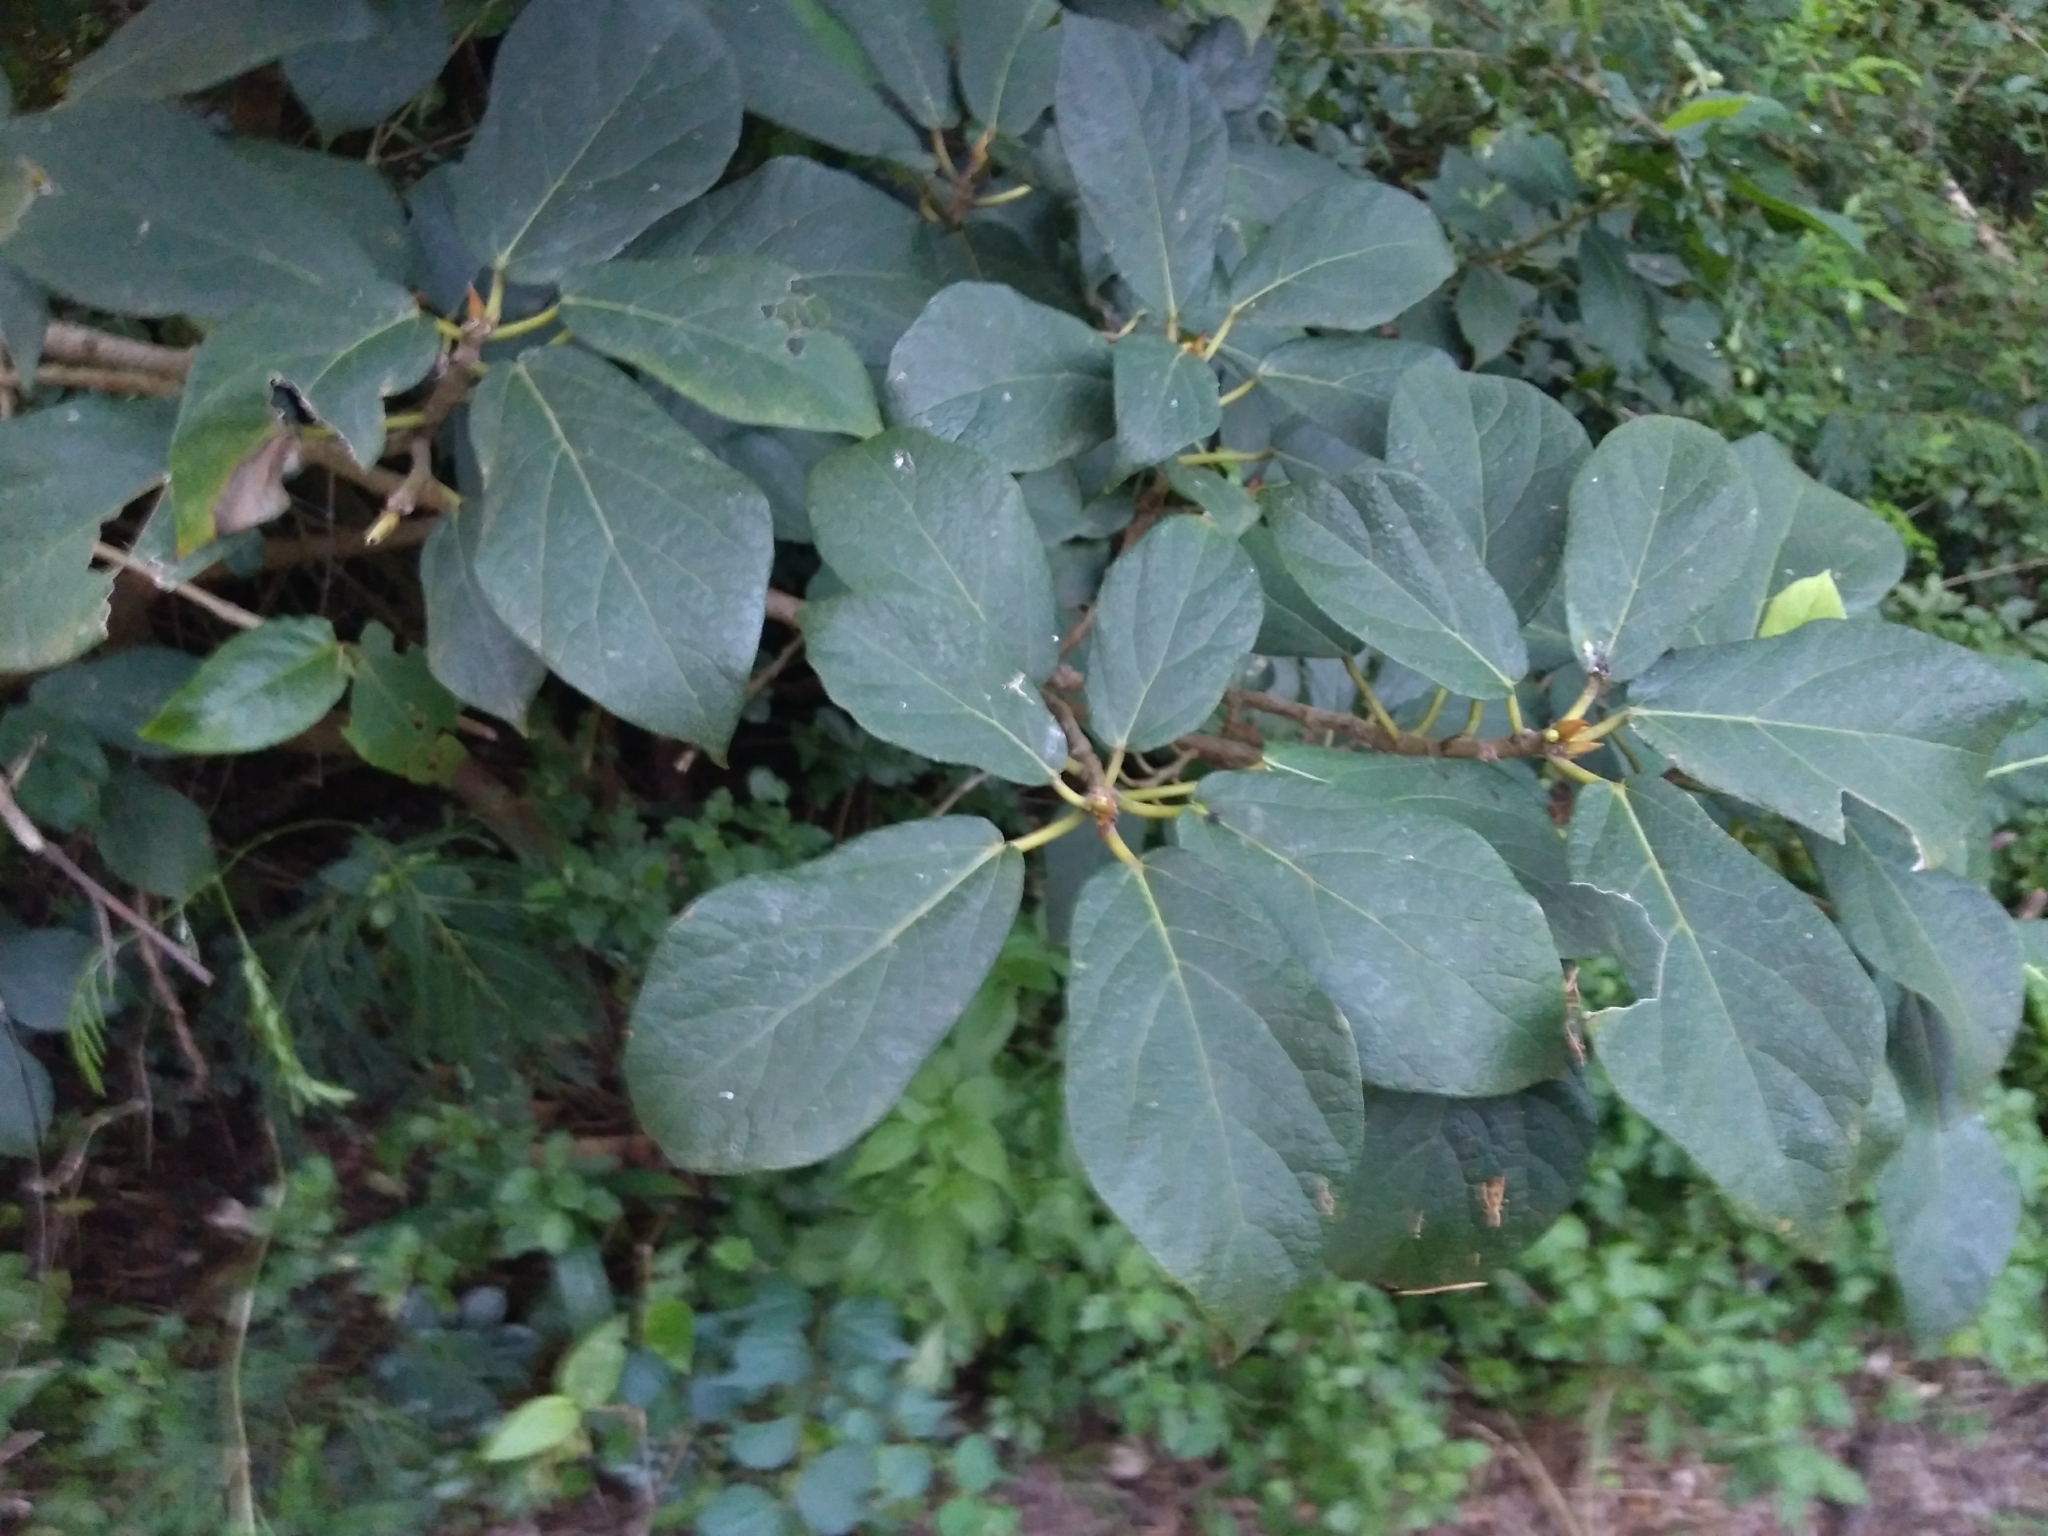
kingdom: Plantae
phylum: Tracheophyta
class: Magnoliopsida
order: Rosales
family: Moraceae
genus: Ficus
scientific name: Ficus erecta
